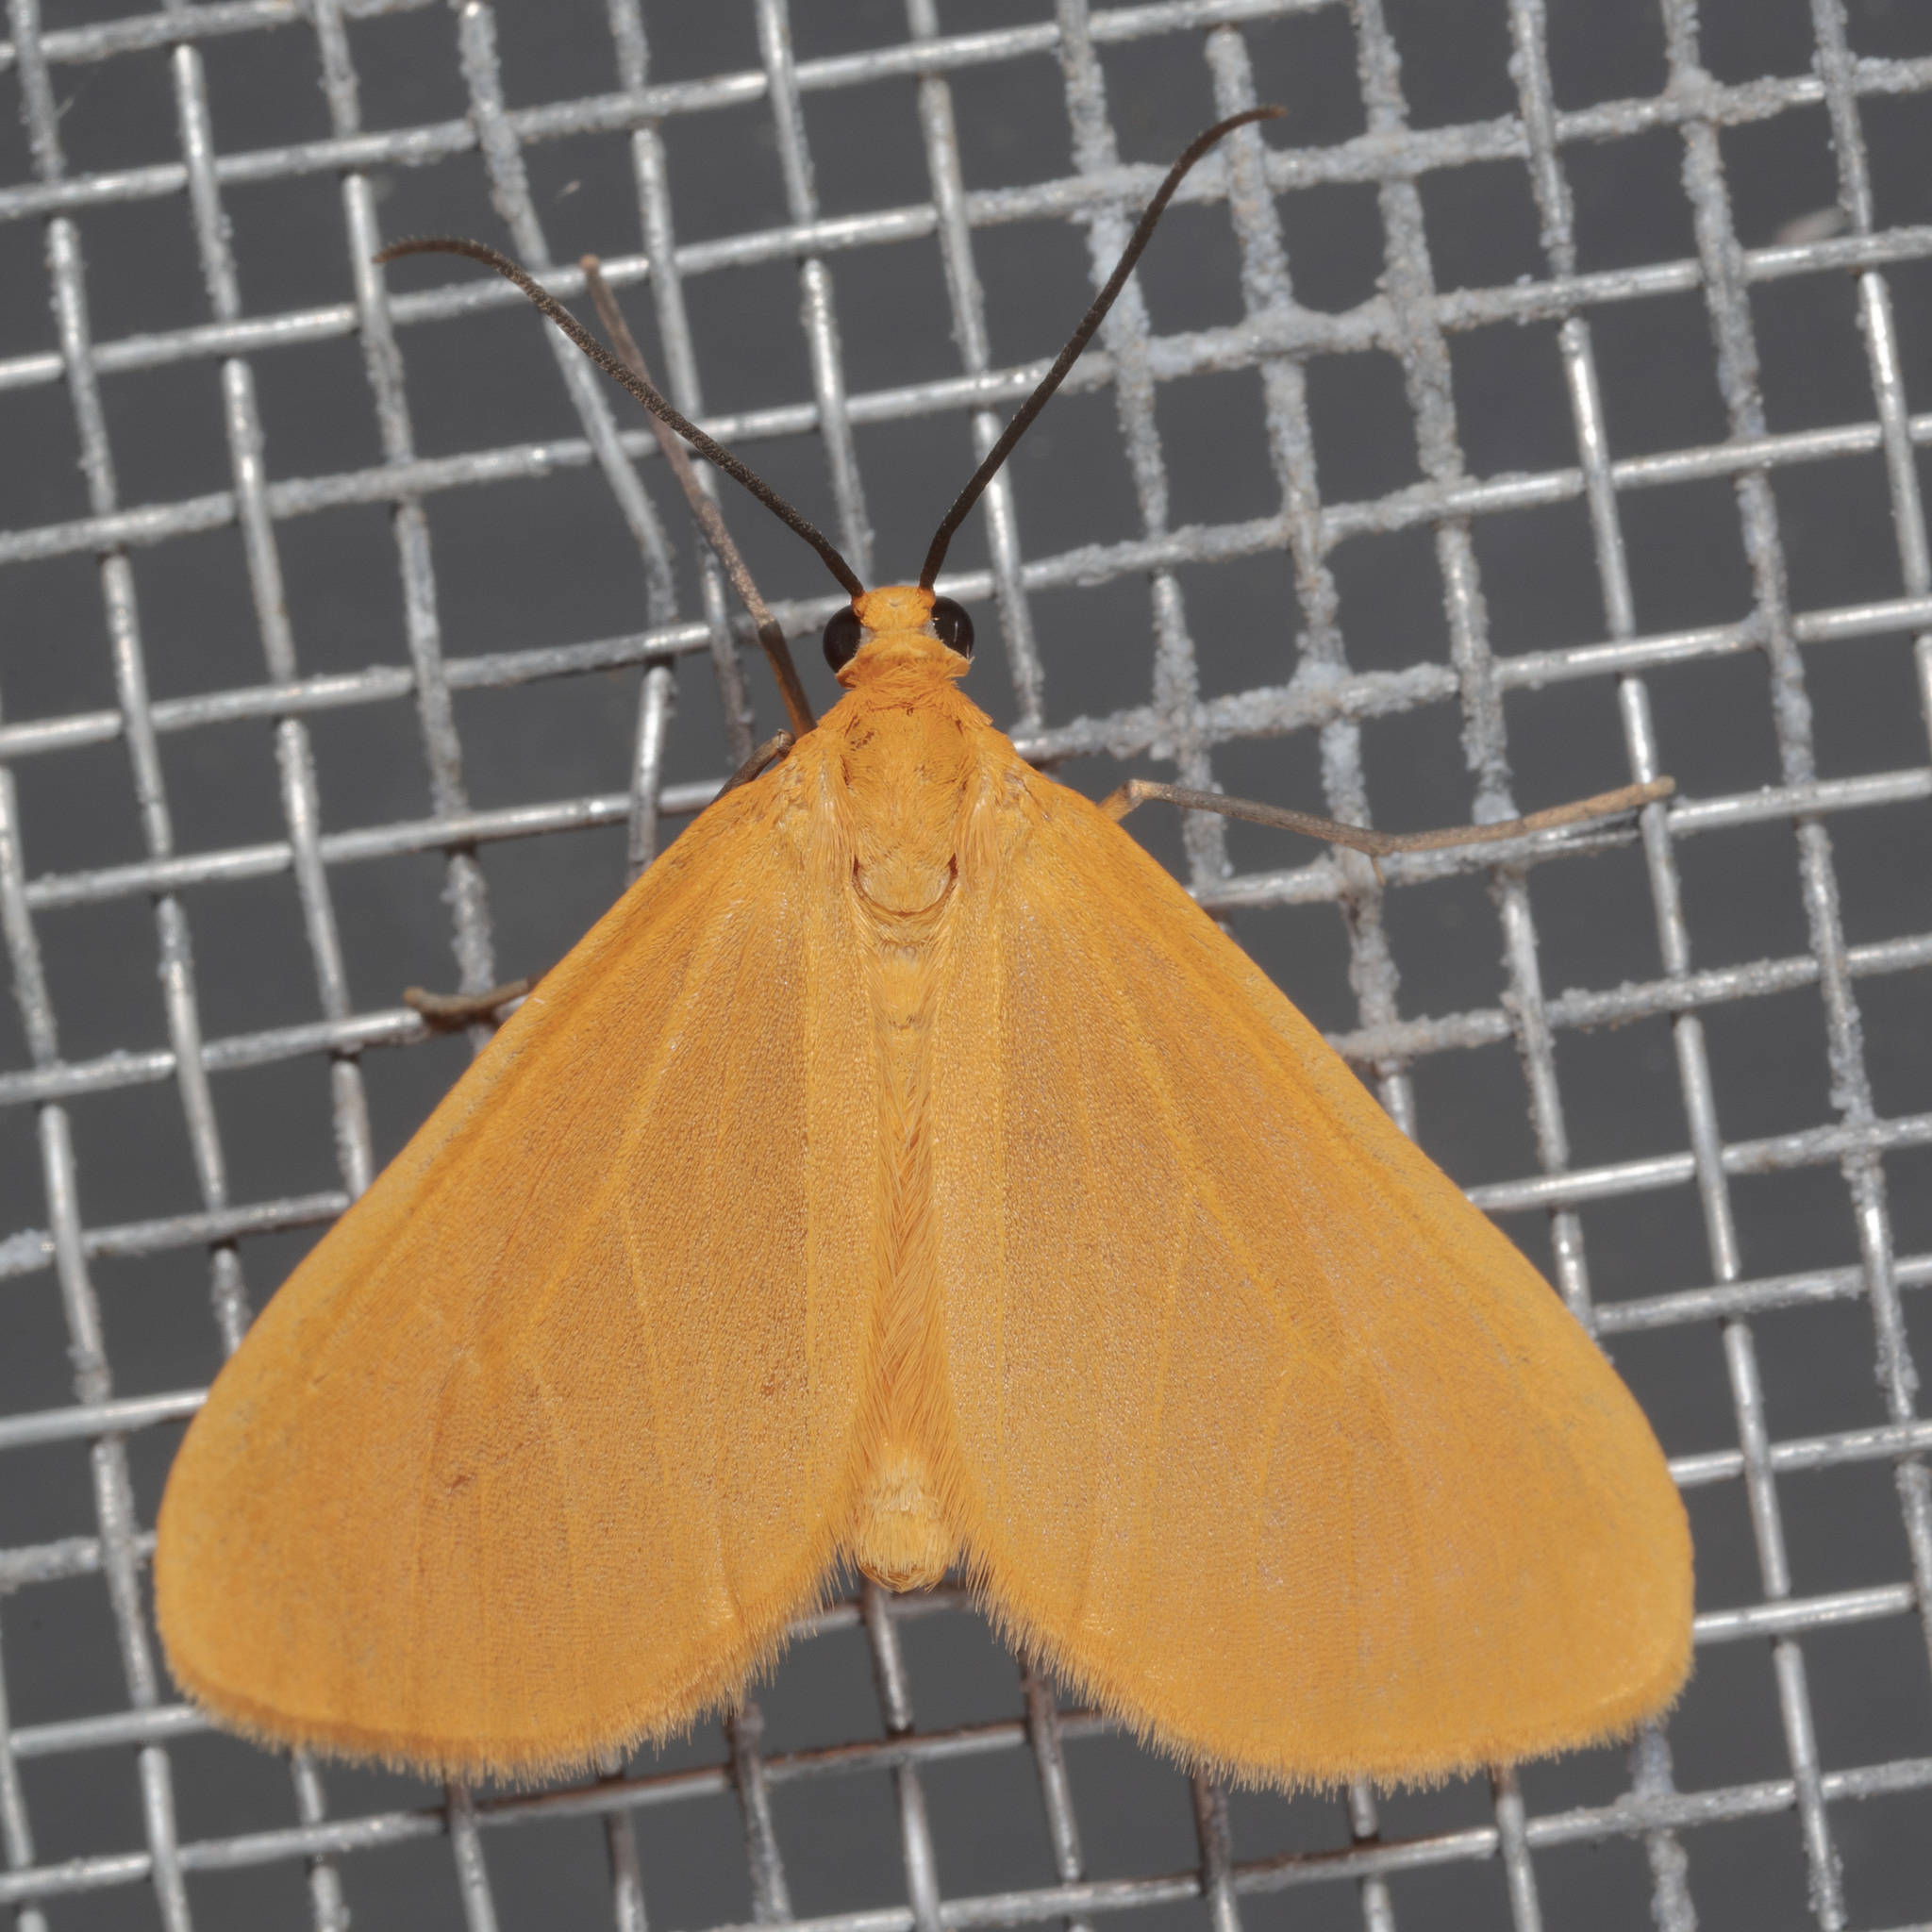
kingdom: Animalia
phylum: Arthropoda
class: Insecta
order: Lepidoptera
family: Geometridae
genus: Eubaphe
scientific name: Eubaphe unicolor
